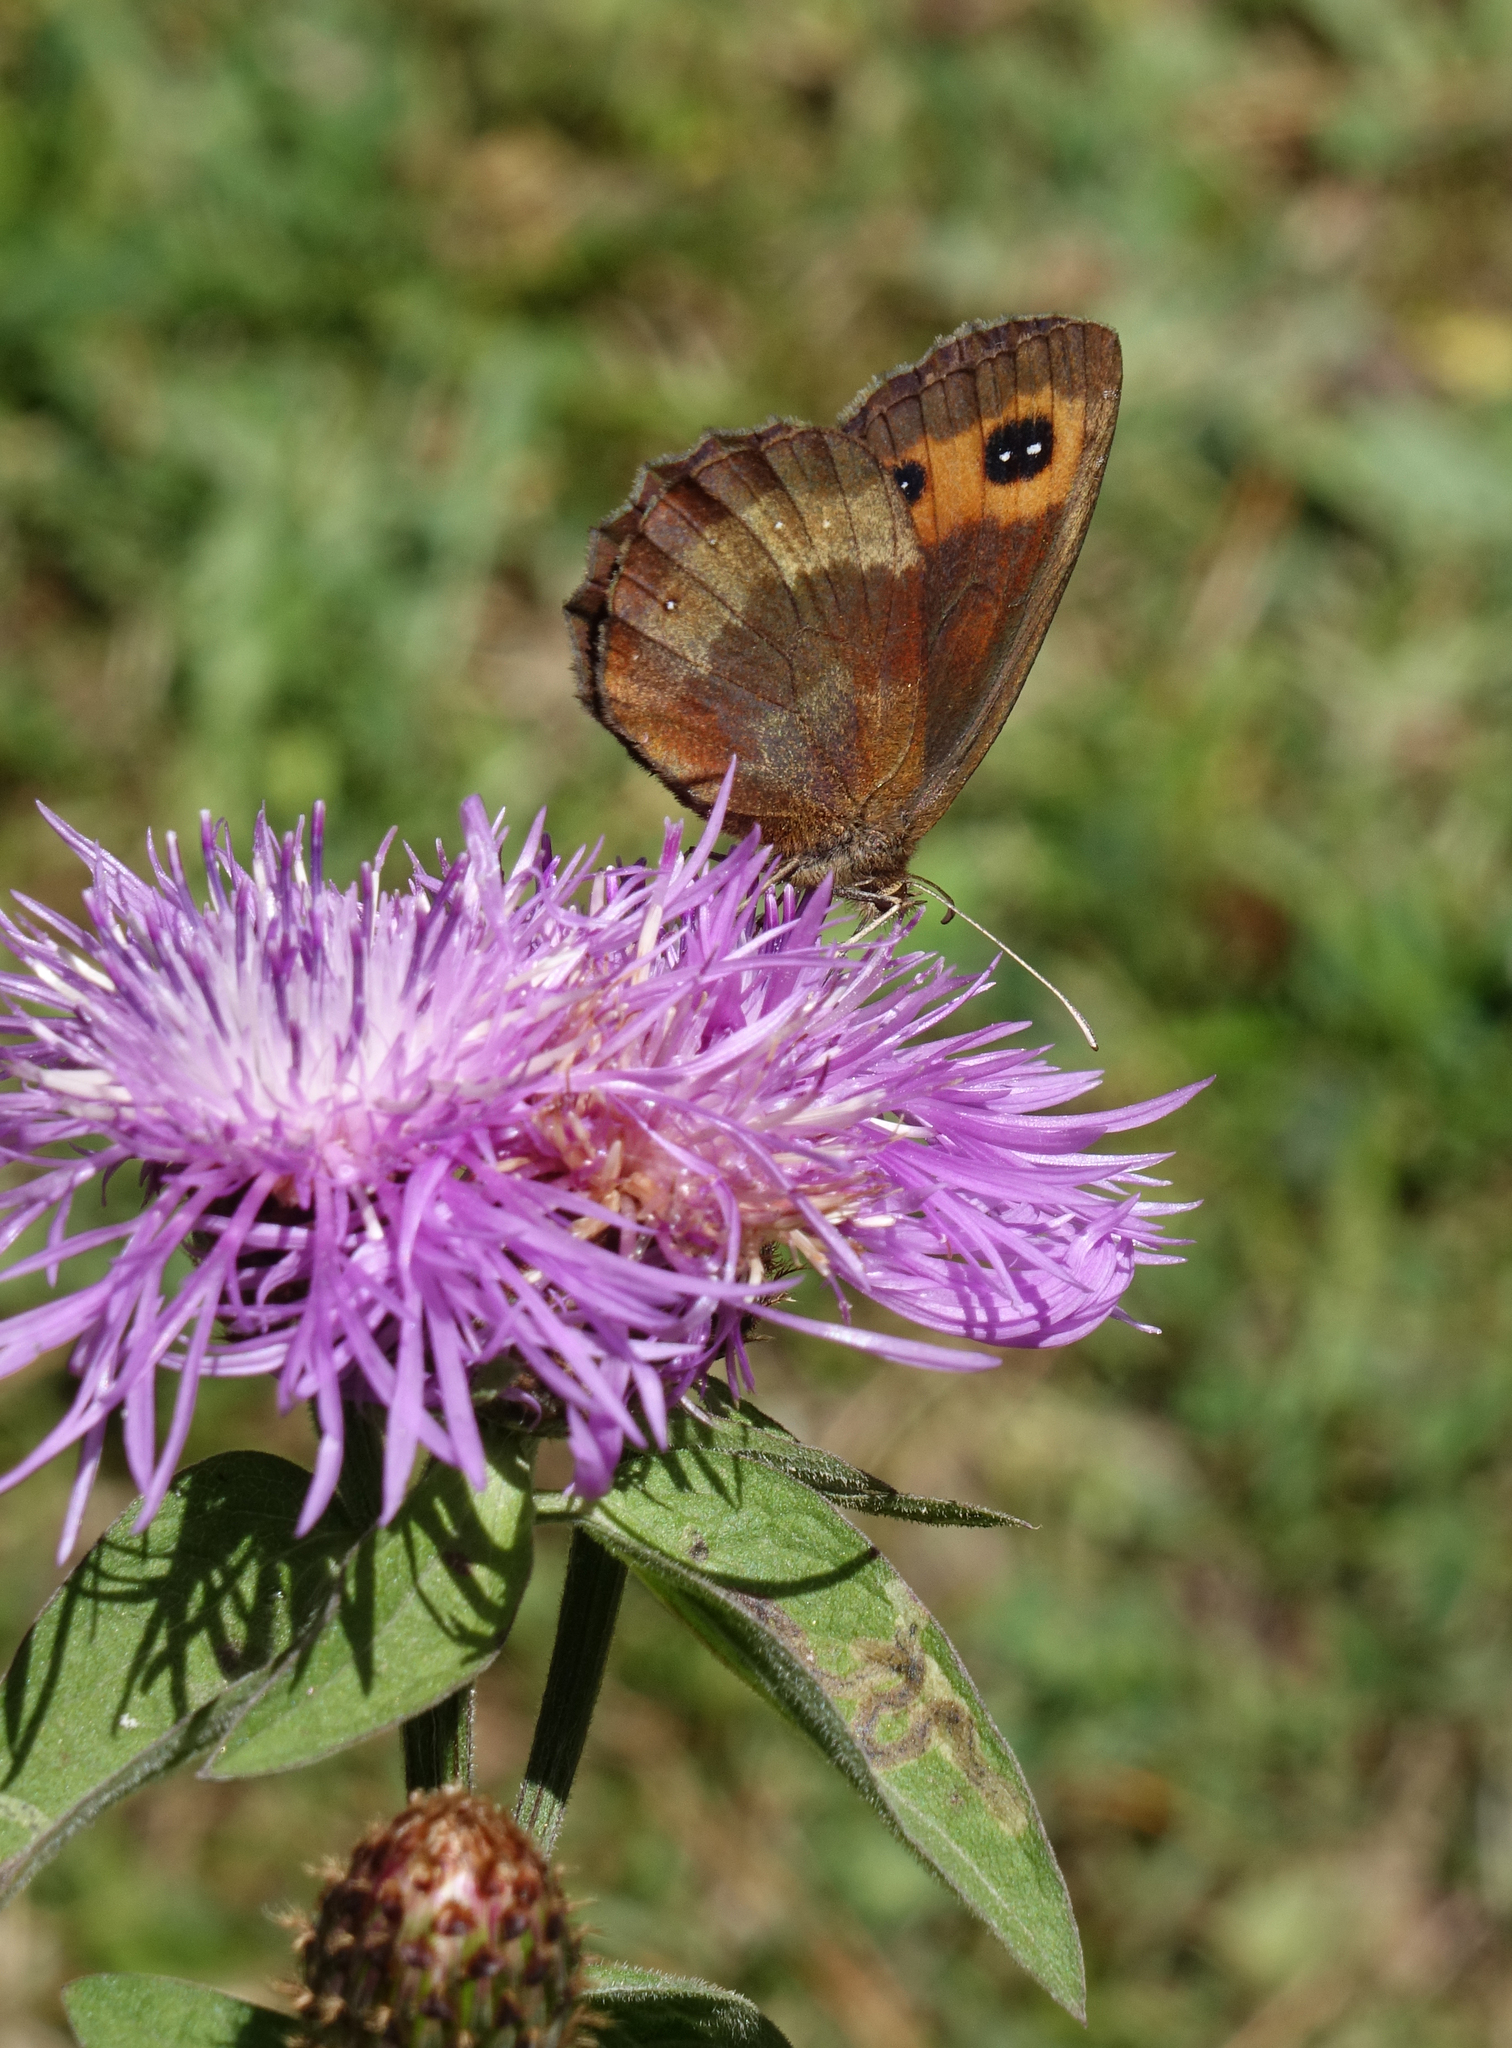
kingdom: Animalia
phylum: Arthropoda
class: Insecta
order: Lepidoptera
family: Nymphalidae
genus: Erebia
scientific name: Erebia aethiops
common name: Scotch argus
